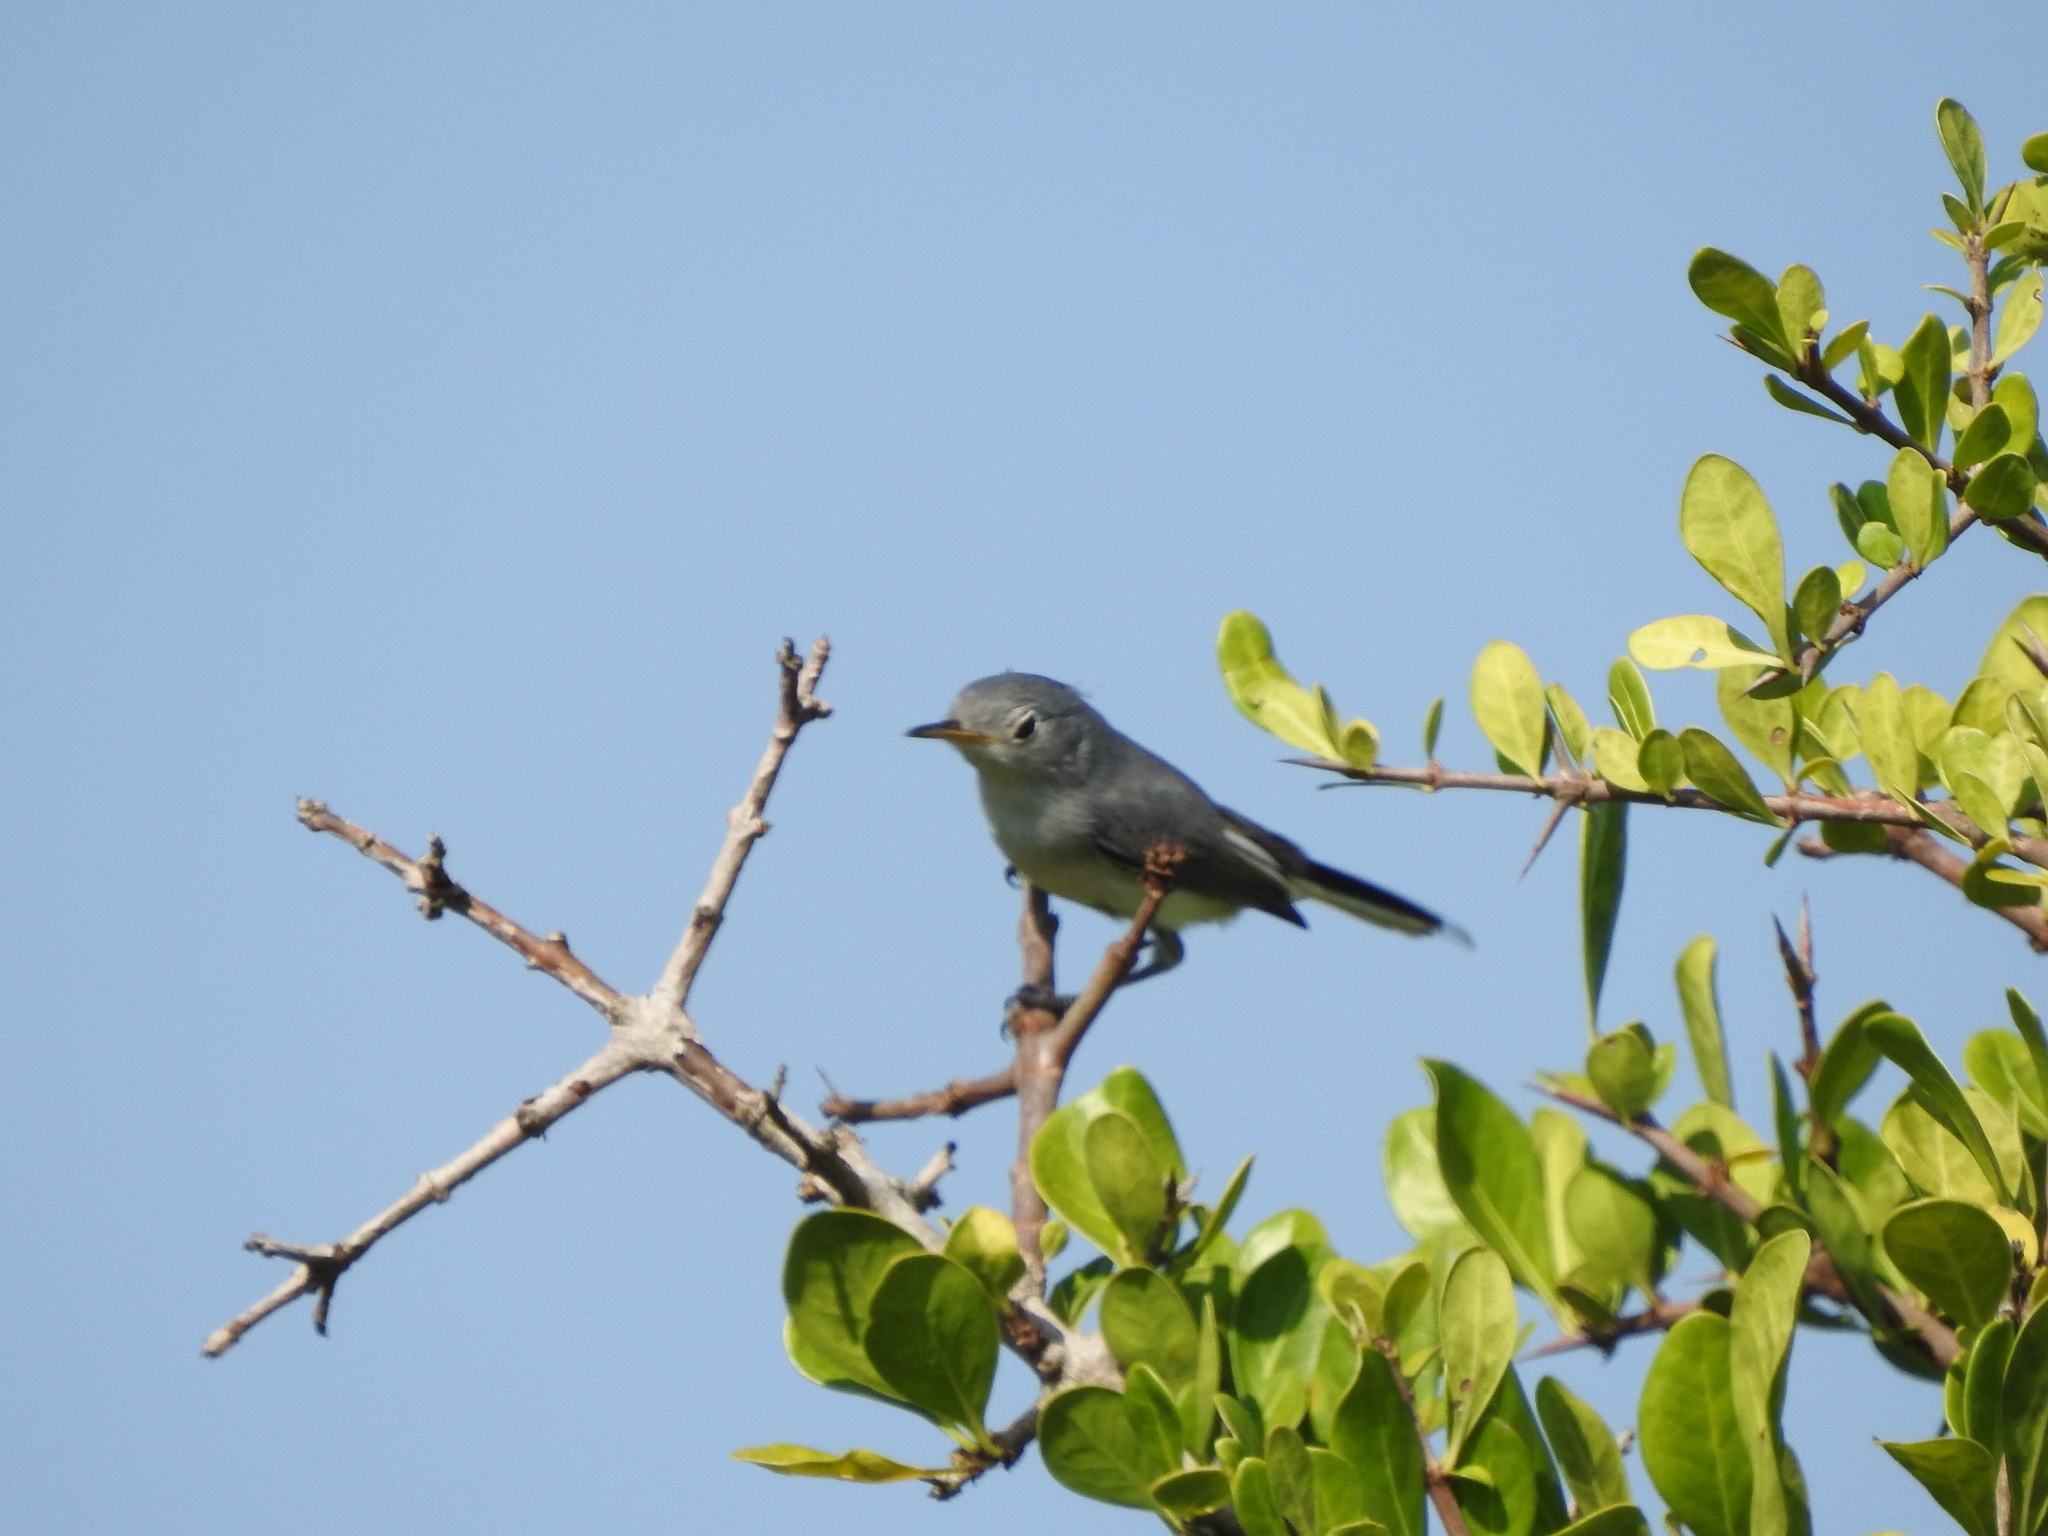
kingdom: Animalia
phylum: Chordata
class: Aves
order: Passeriformes
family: Polioptilidae
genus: Polioptila
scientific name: Polioptila caerulea
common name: Blue-gray gnatcatcher
